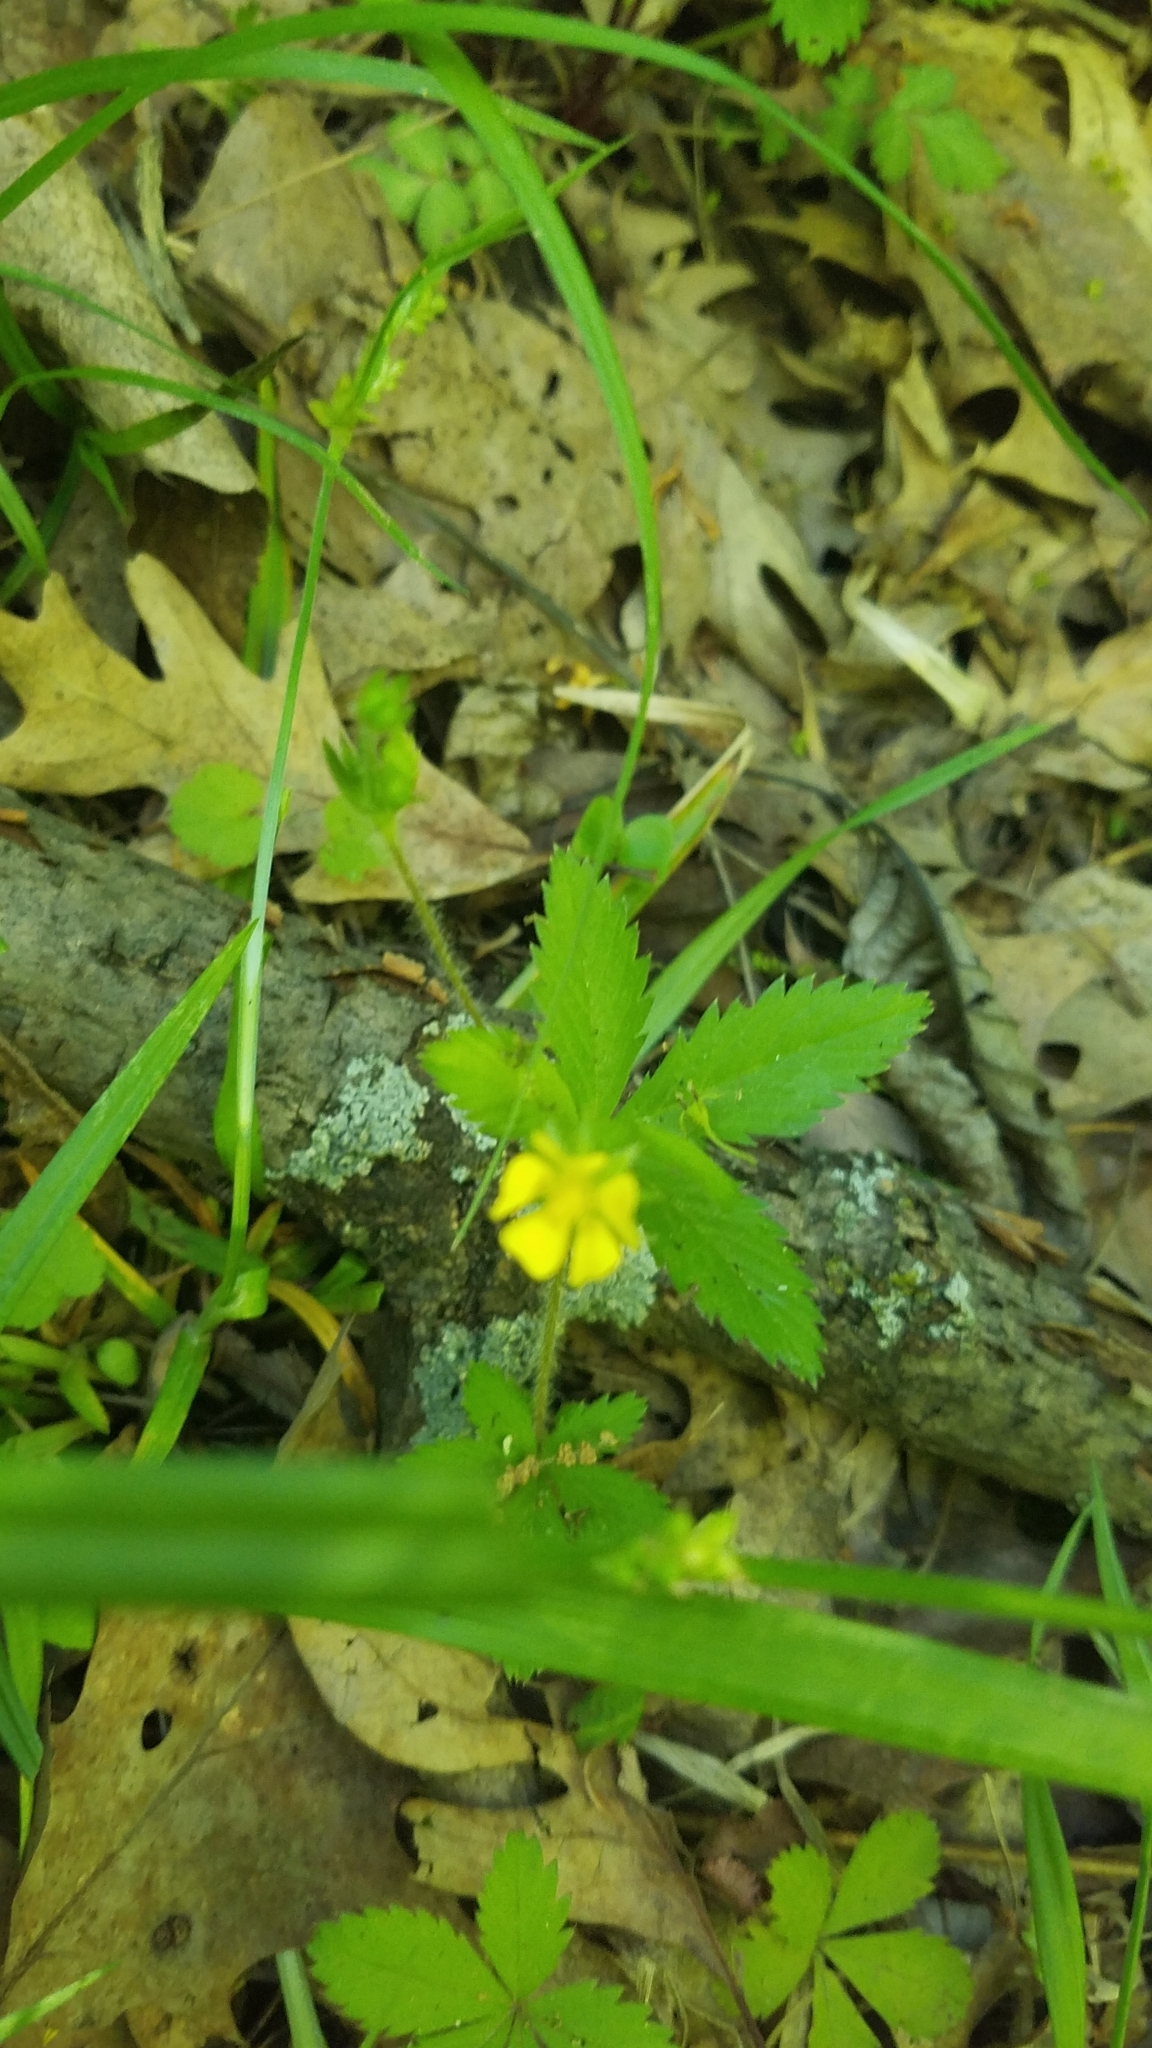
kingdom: Plantae
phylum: Tracheophyta
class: Magnoliopsida
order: Rosales
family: Rosaceae
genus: Potentilla
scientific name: Potentilla simplex
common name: Old field cinquefoil
